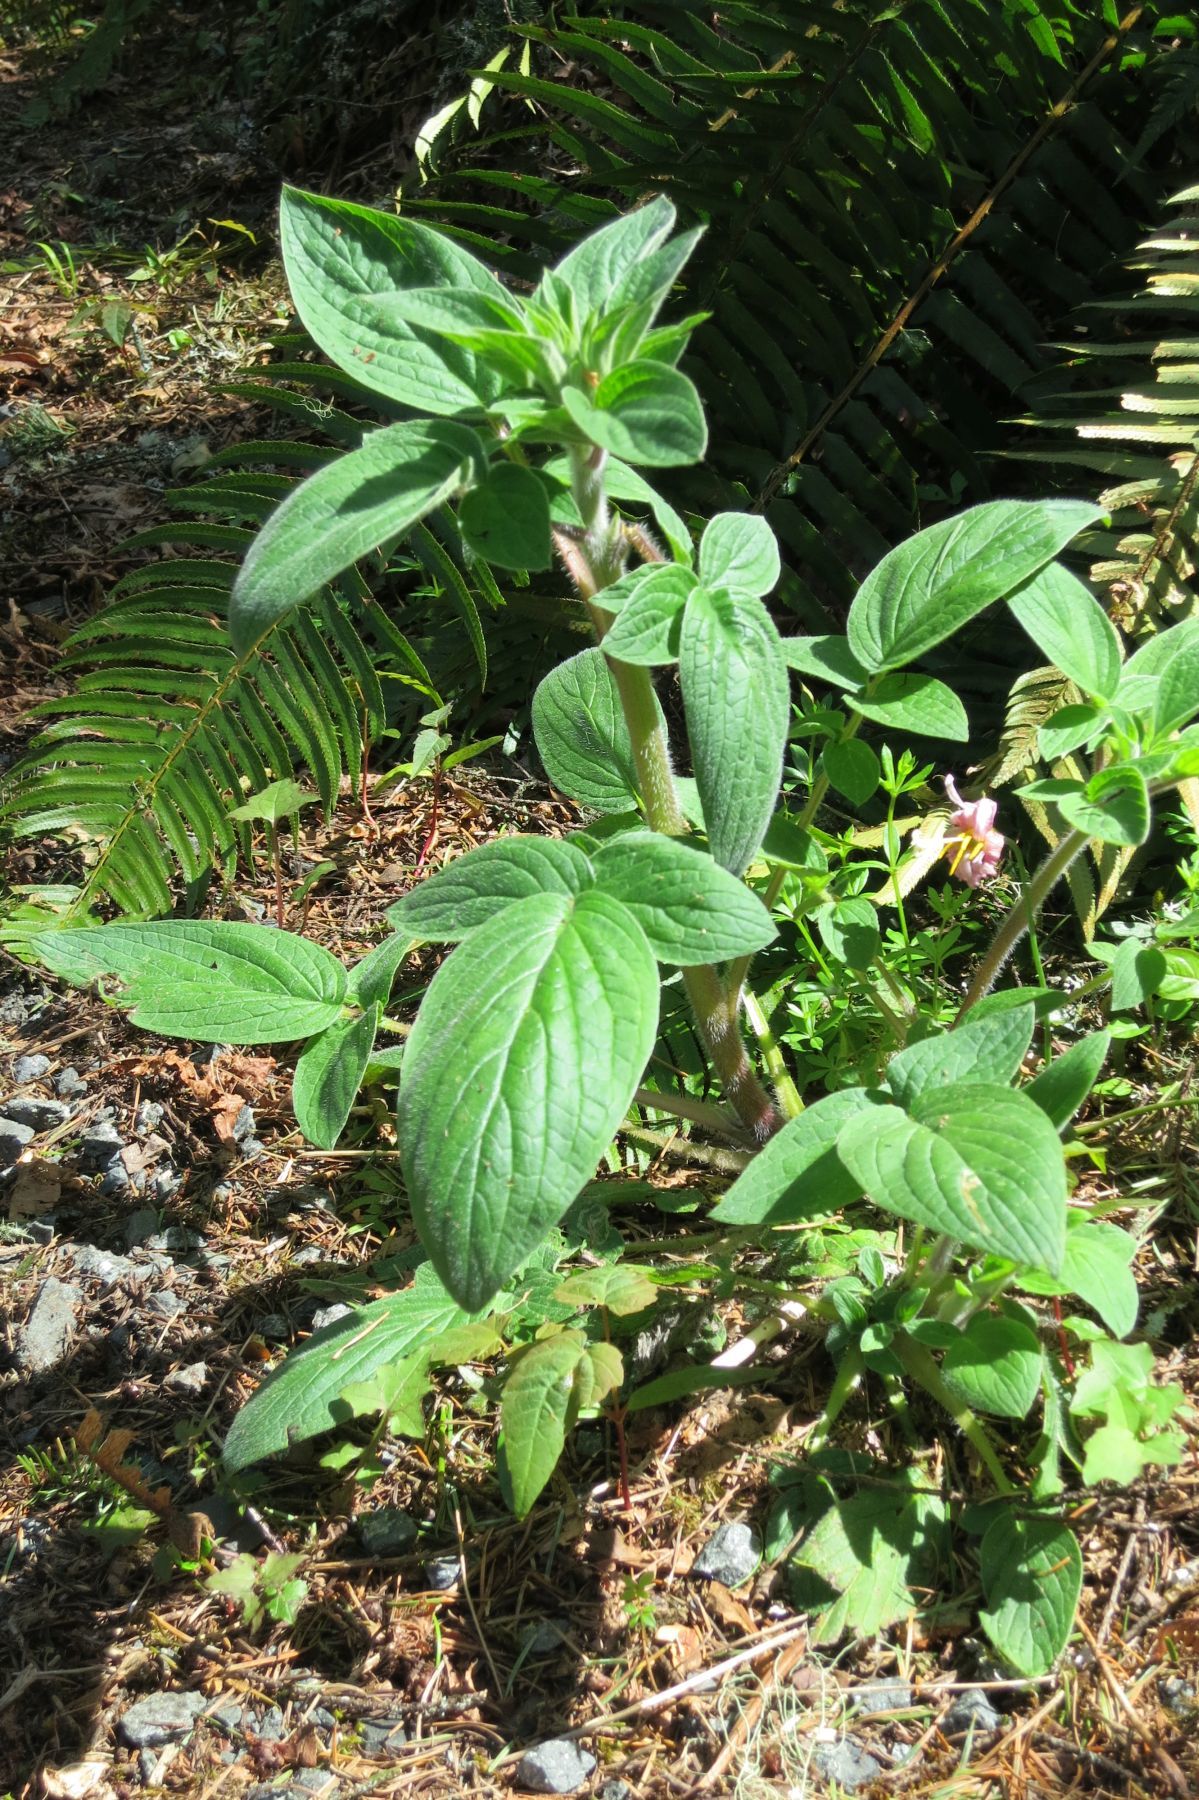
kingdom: Plantae
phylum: Tracheophyta
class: Magnoliopsida
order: Boraginales
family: Hydrophyllaceae
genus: Phacelia
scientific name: Phacelia nemoralis
